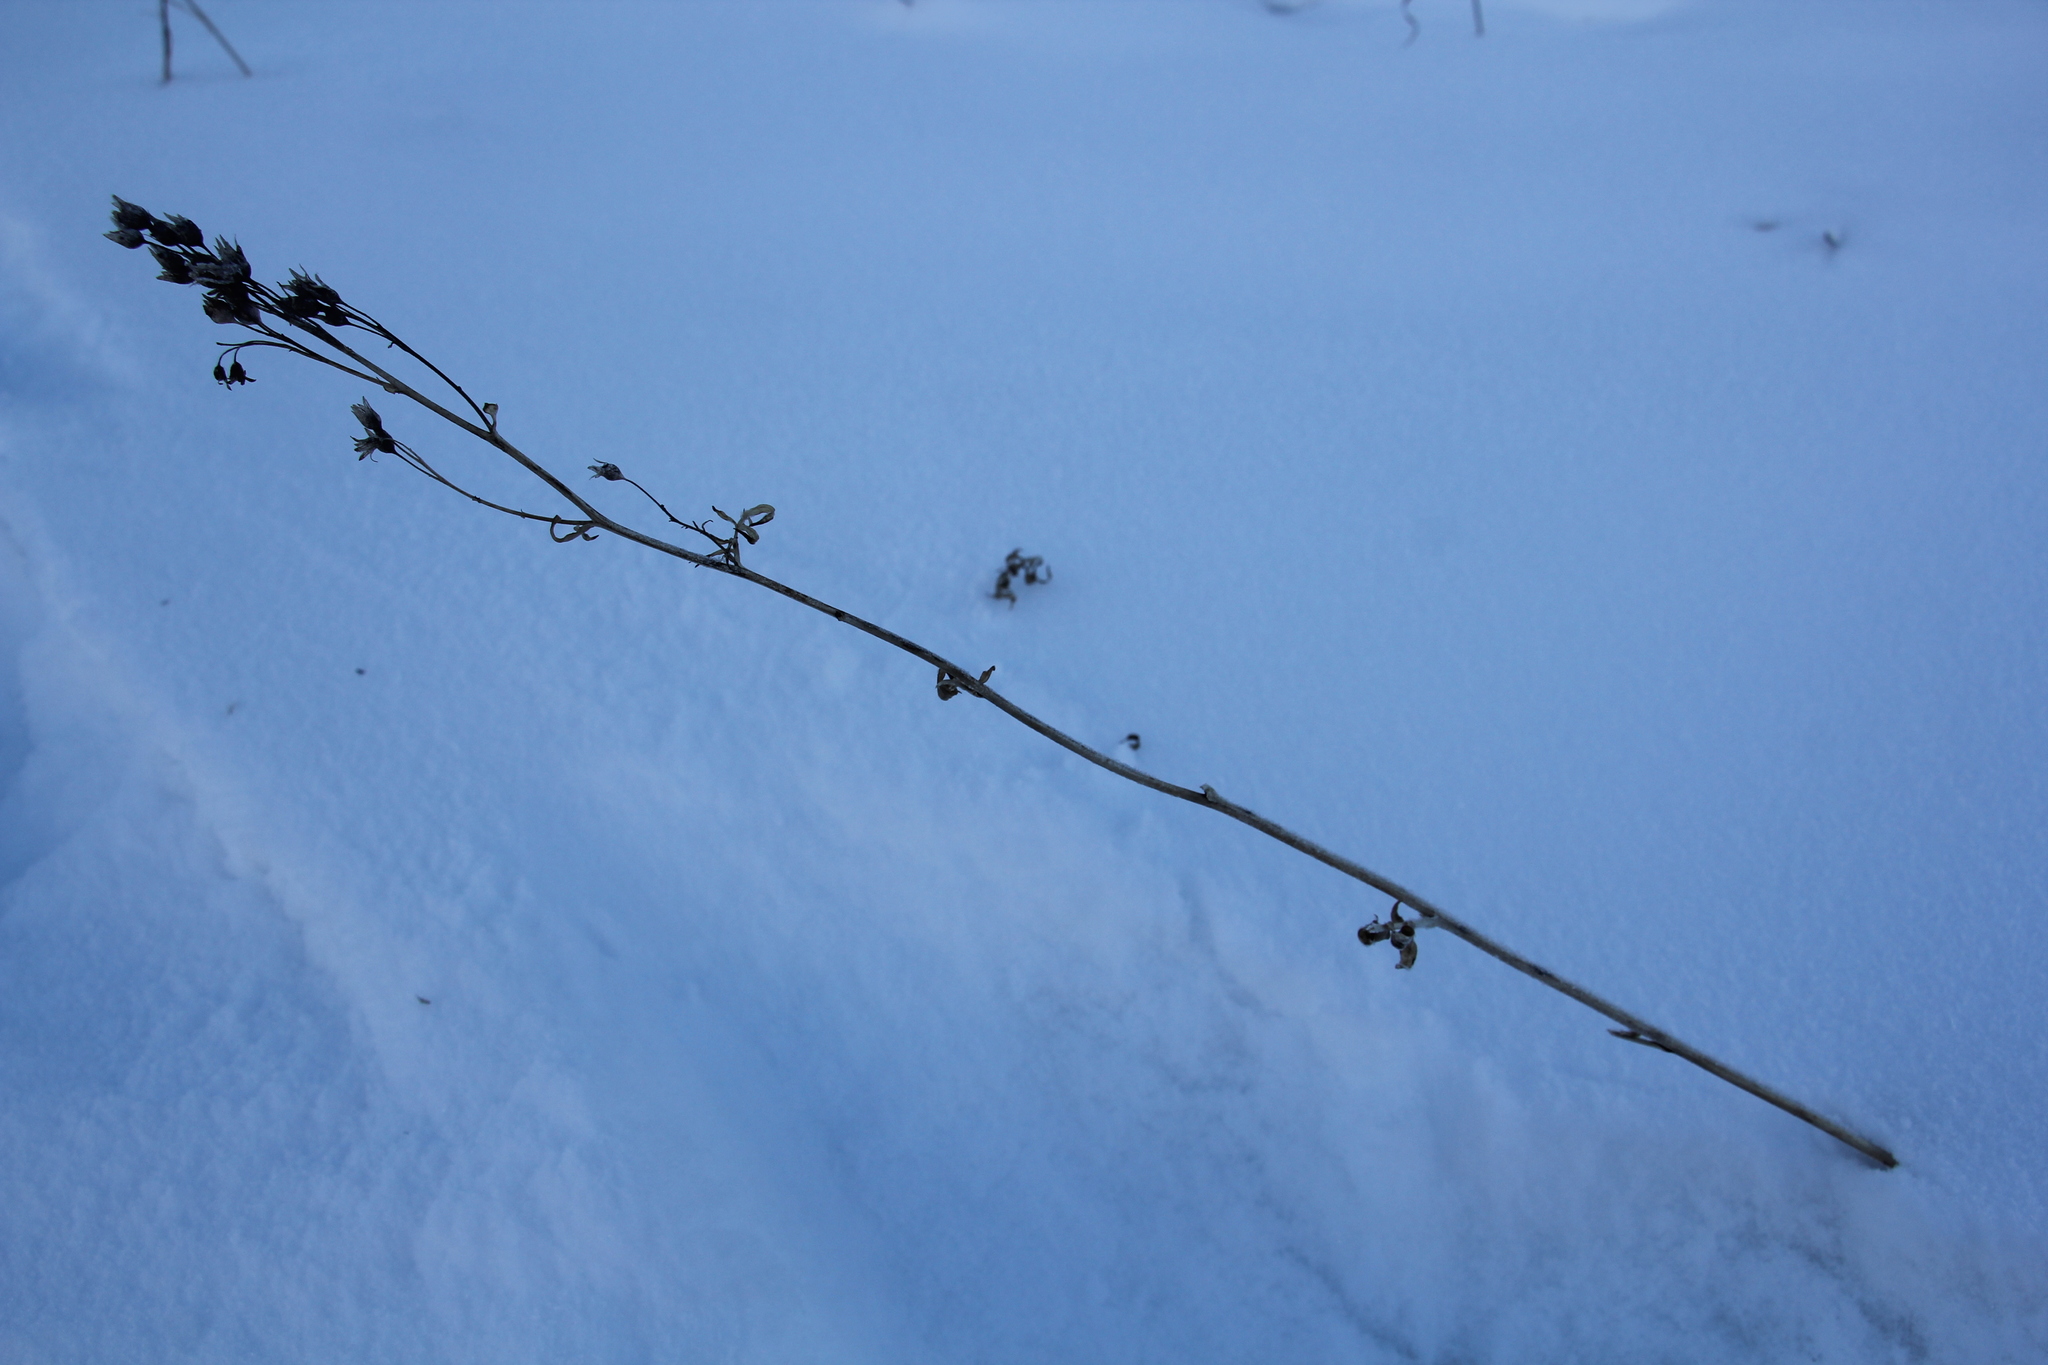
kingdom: Plantae
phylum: Tracheophyta
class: Magnoliopsida
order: Ericales
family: Polemoniaceae
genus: Polemonium
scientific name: Polemonium caeruleum
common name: Jacob's-ladder
